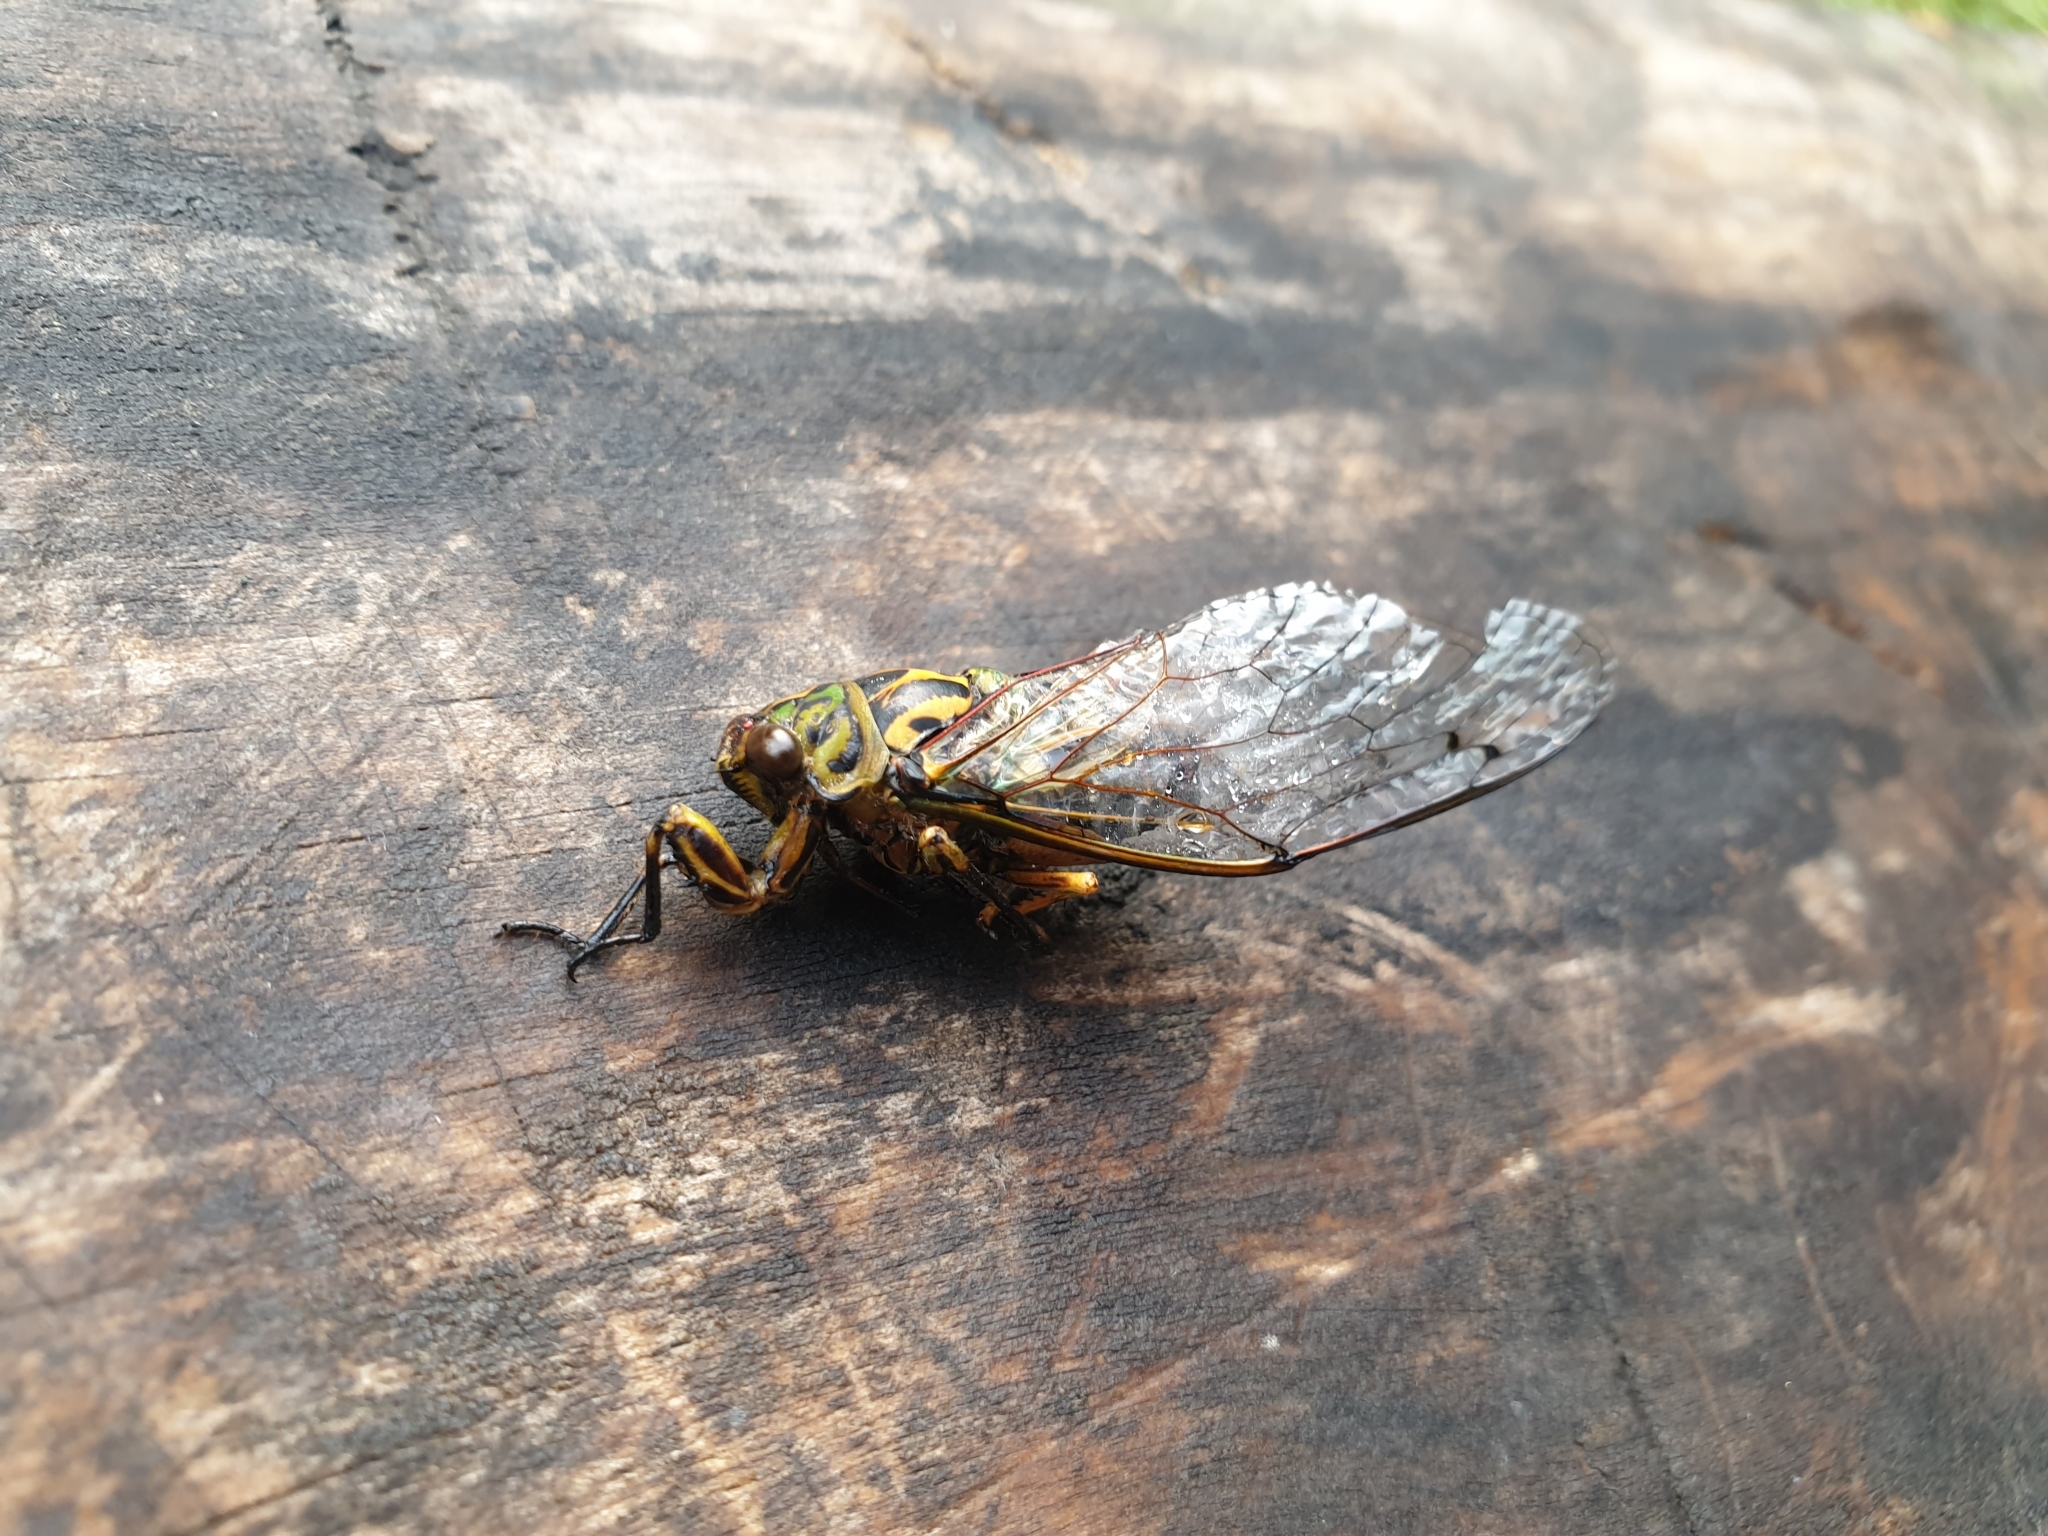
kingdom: Animalia
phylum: Arthropoda
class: Insecta
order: Hemiptera
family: Cicadidae
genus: Amphipsalta
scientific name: Amphipsalta zelandica
